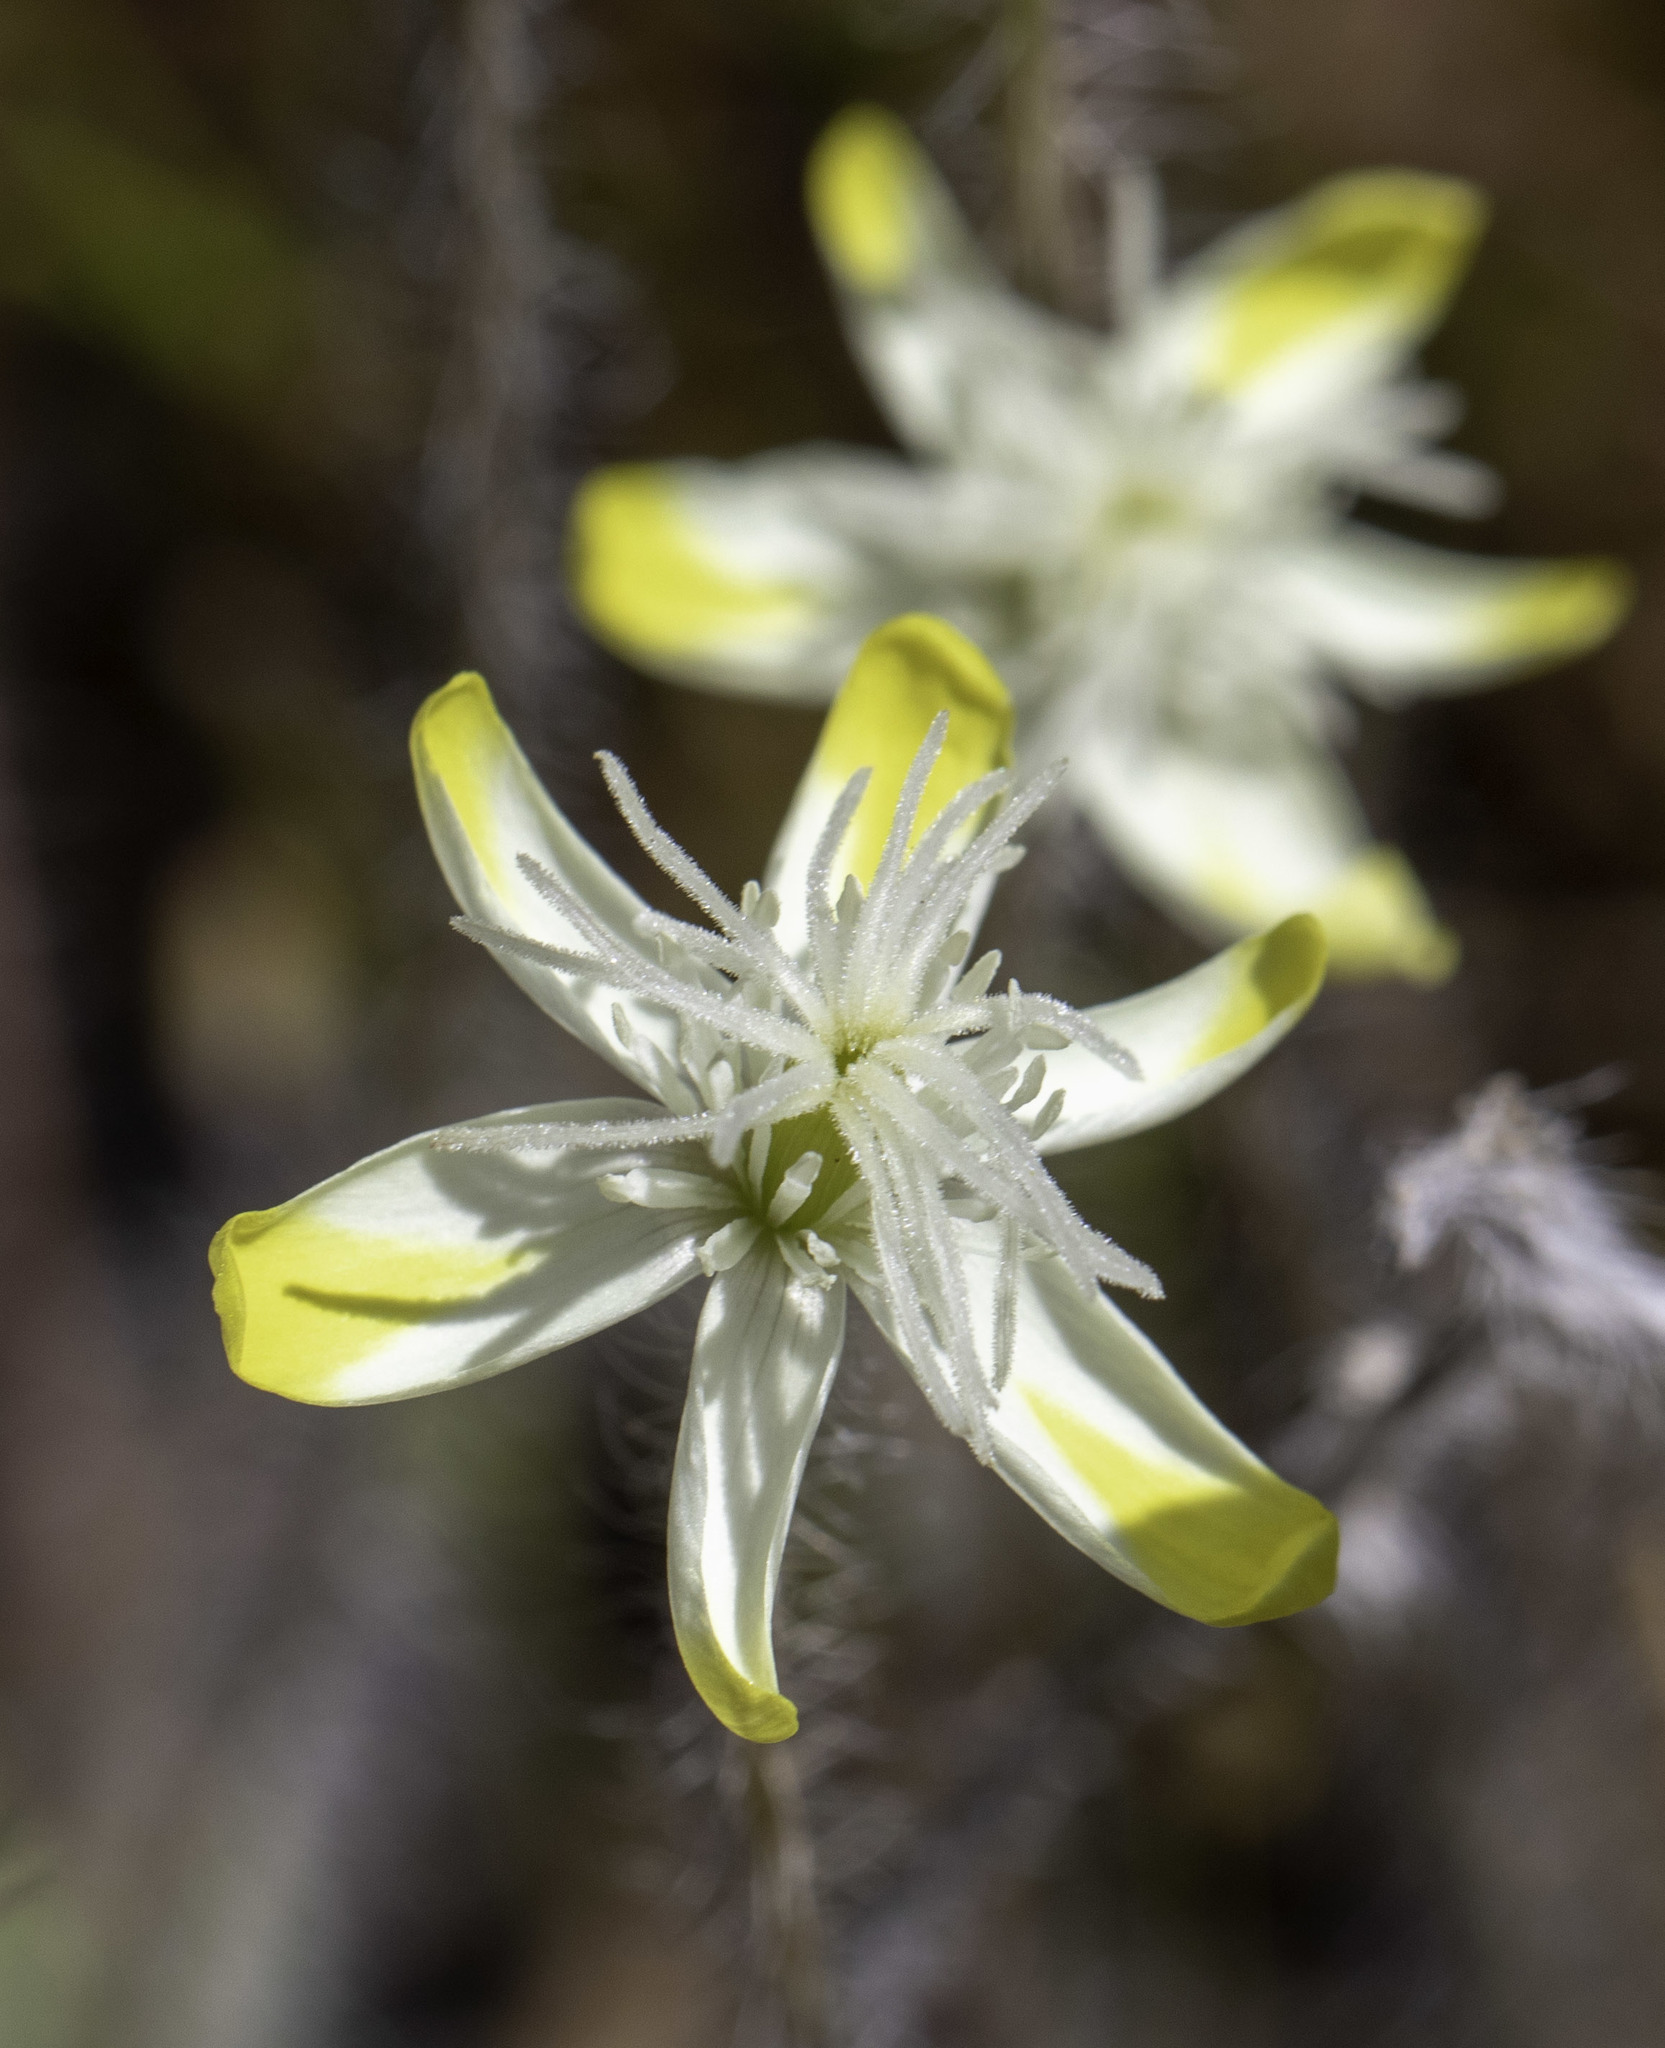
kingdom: Plantae
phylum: Tracheophyta
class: Magnoliopsida
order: Ranunculales
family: Papaveraceae
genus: Platystemon
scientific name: Platystemon californicus
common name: Cream-cups
